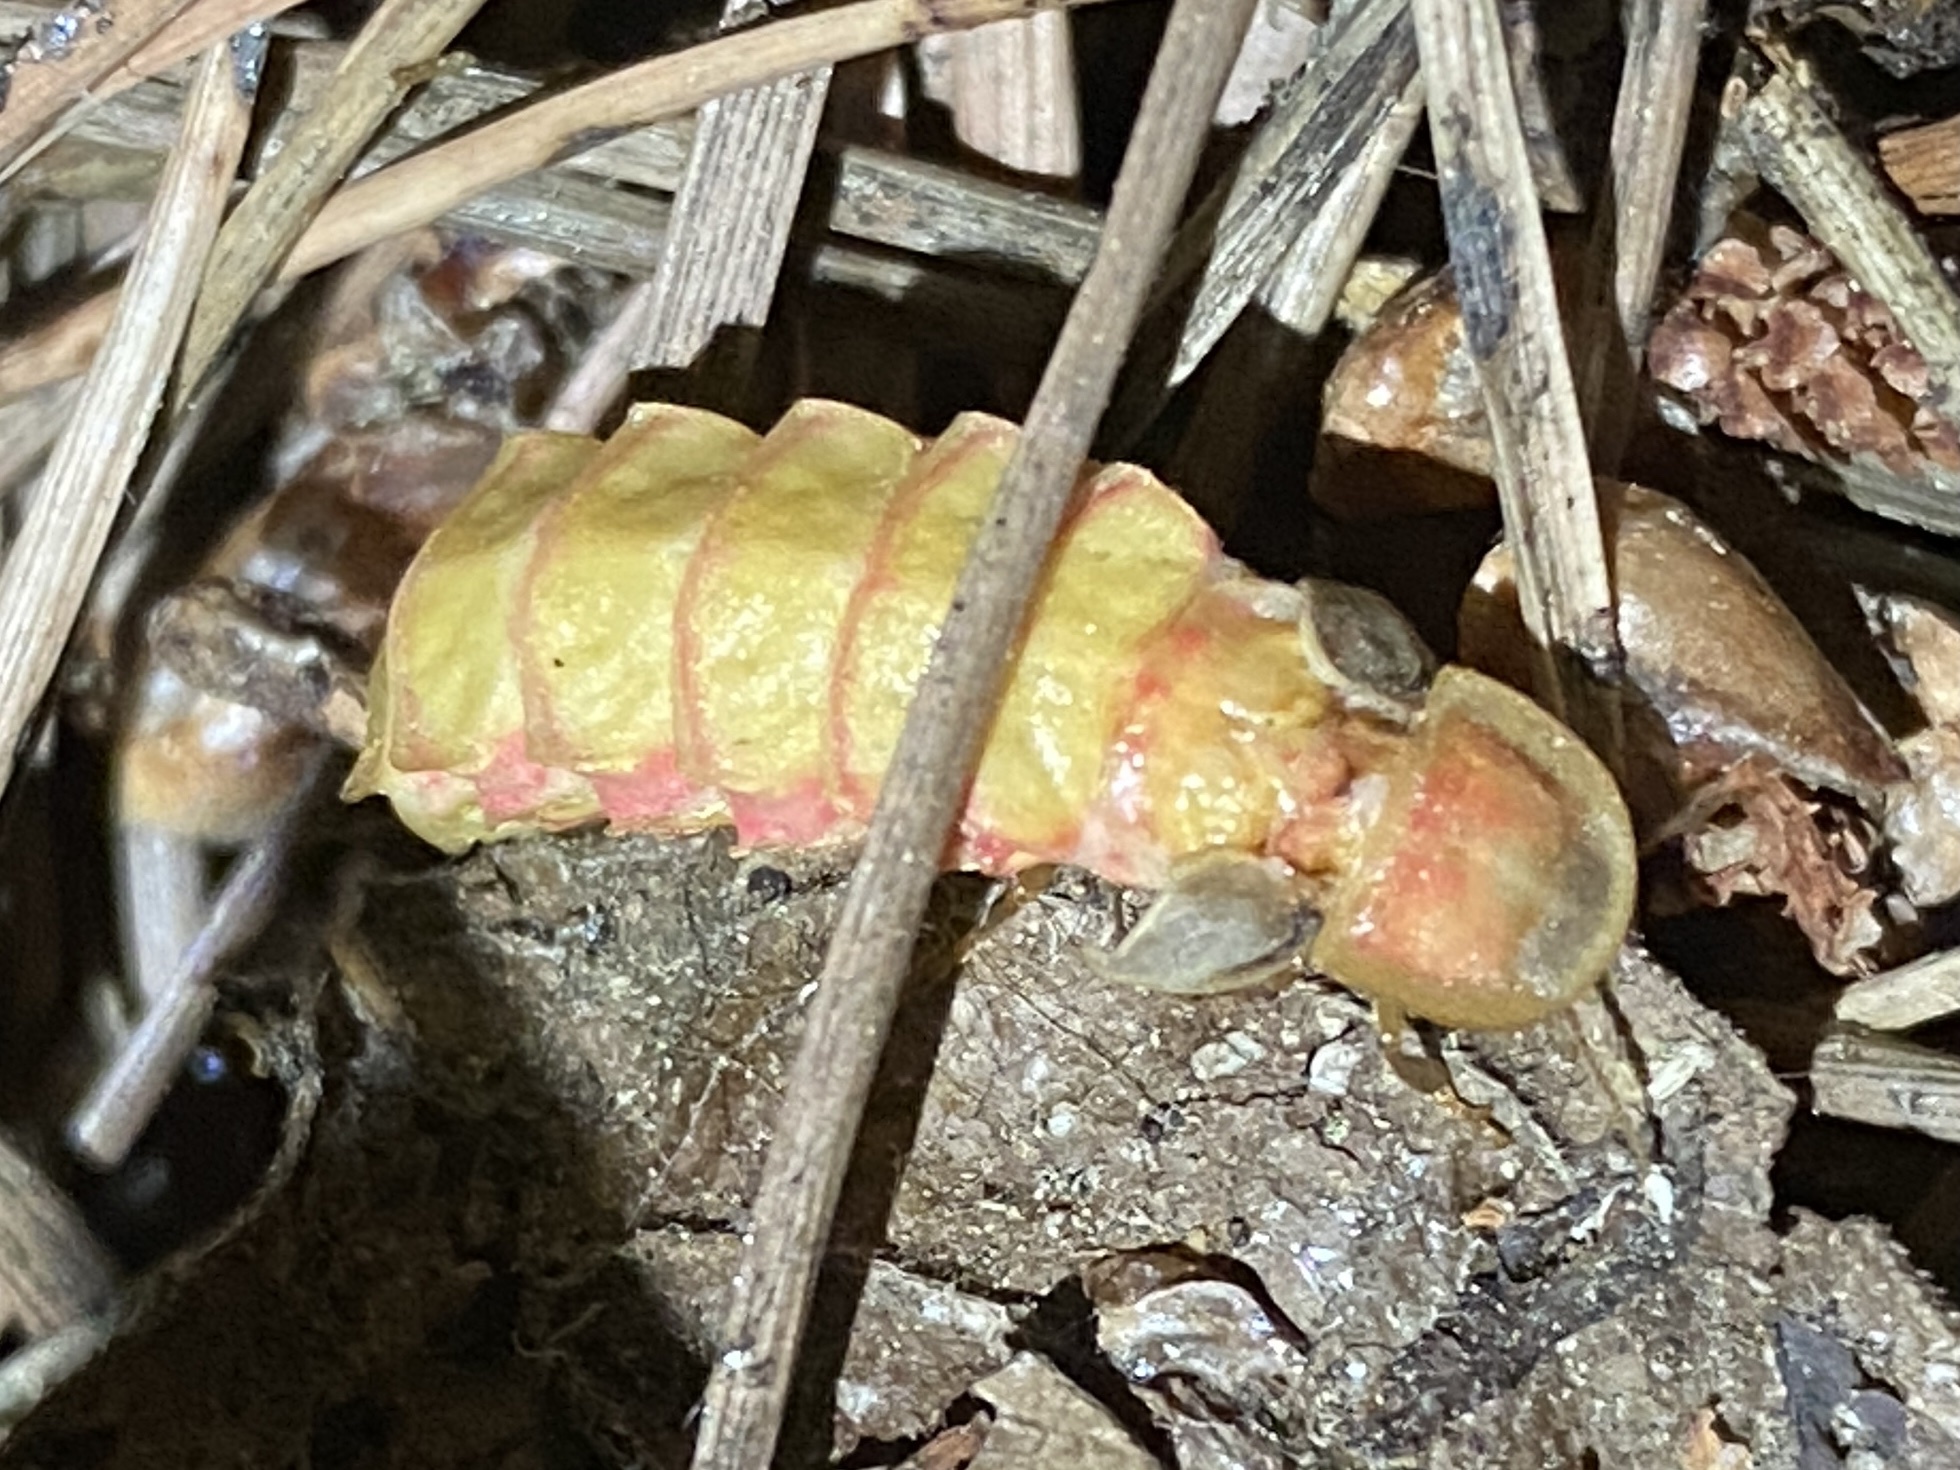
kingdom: Animalia
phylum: Arthropoda
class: Insecta
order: Coleoptera
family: Lampyridae
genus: Nyctophila
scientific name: Nyctophila reichii
